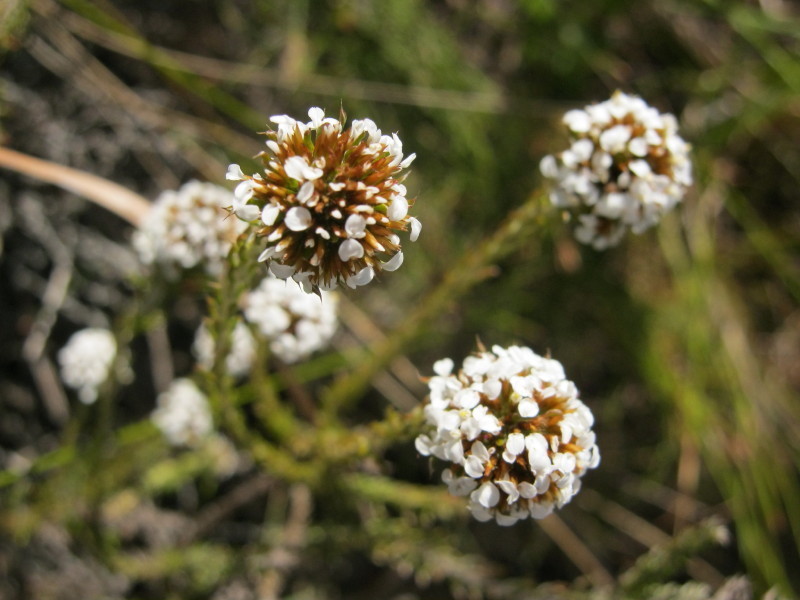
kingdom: Plantae
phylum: Tracheophyta
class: Magnoliopsida
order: Asterales
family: Asteraceae
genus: Disparago
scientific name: Disparago tortilis
